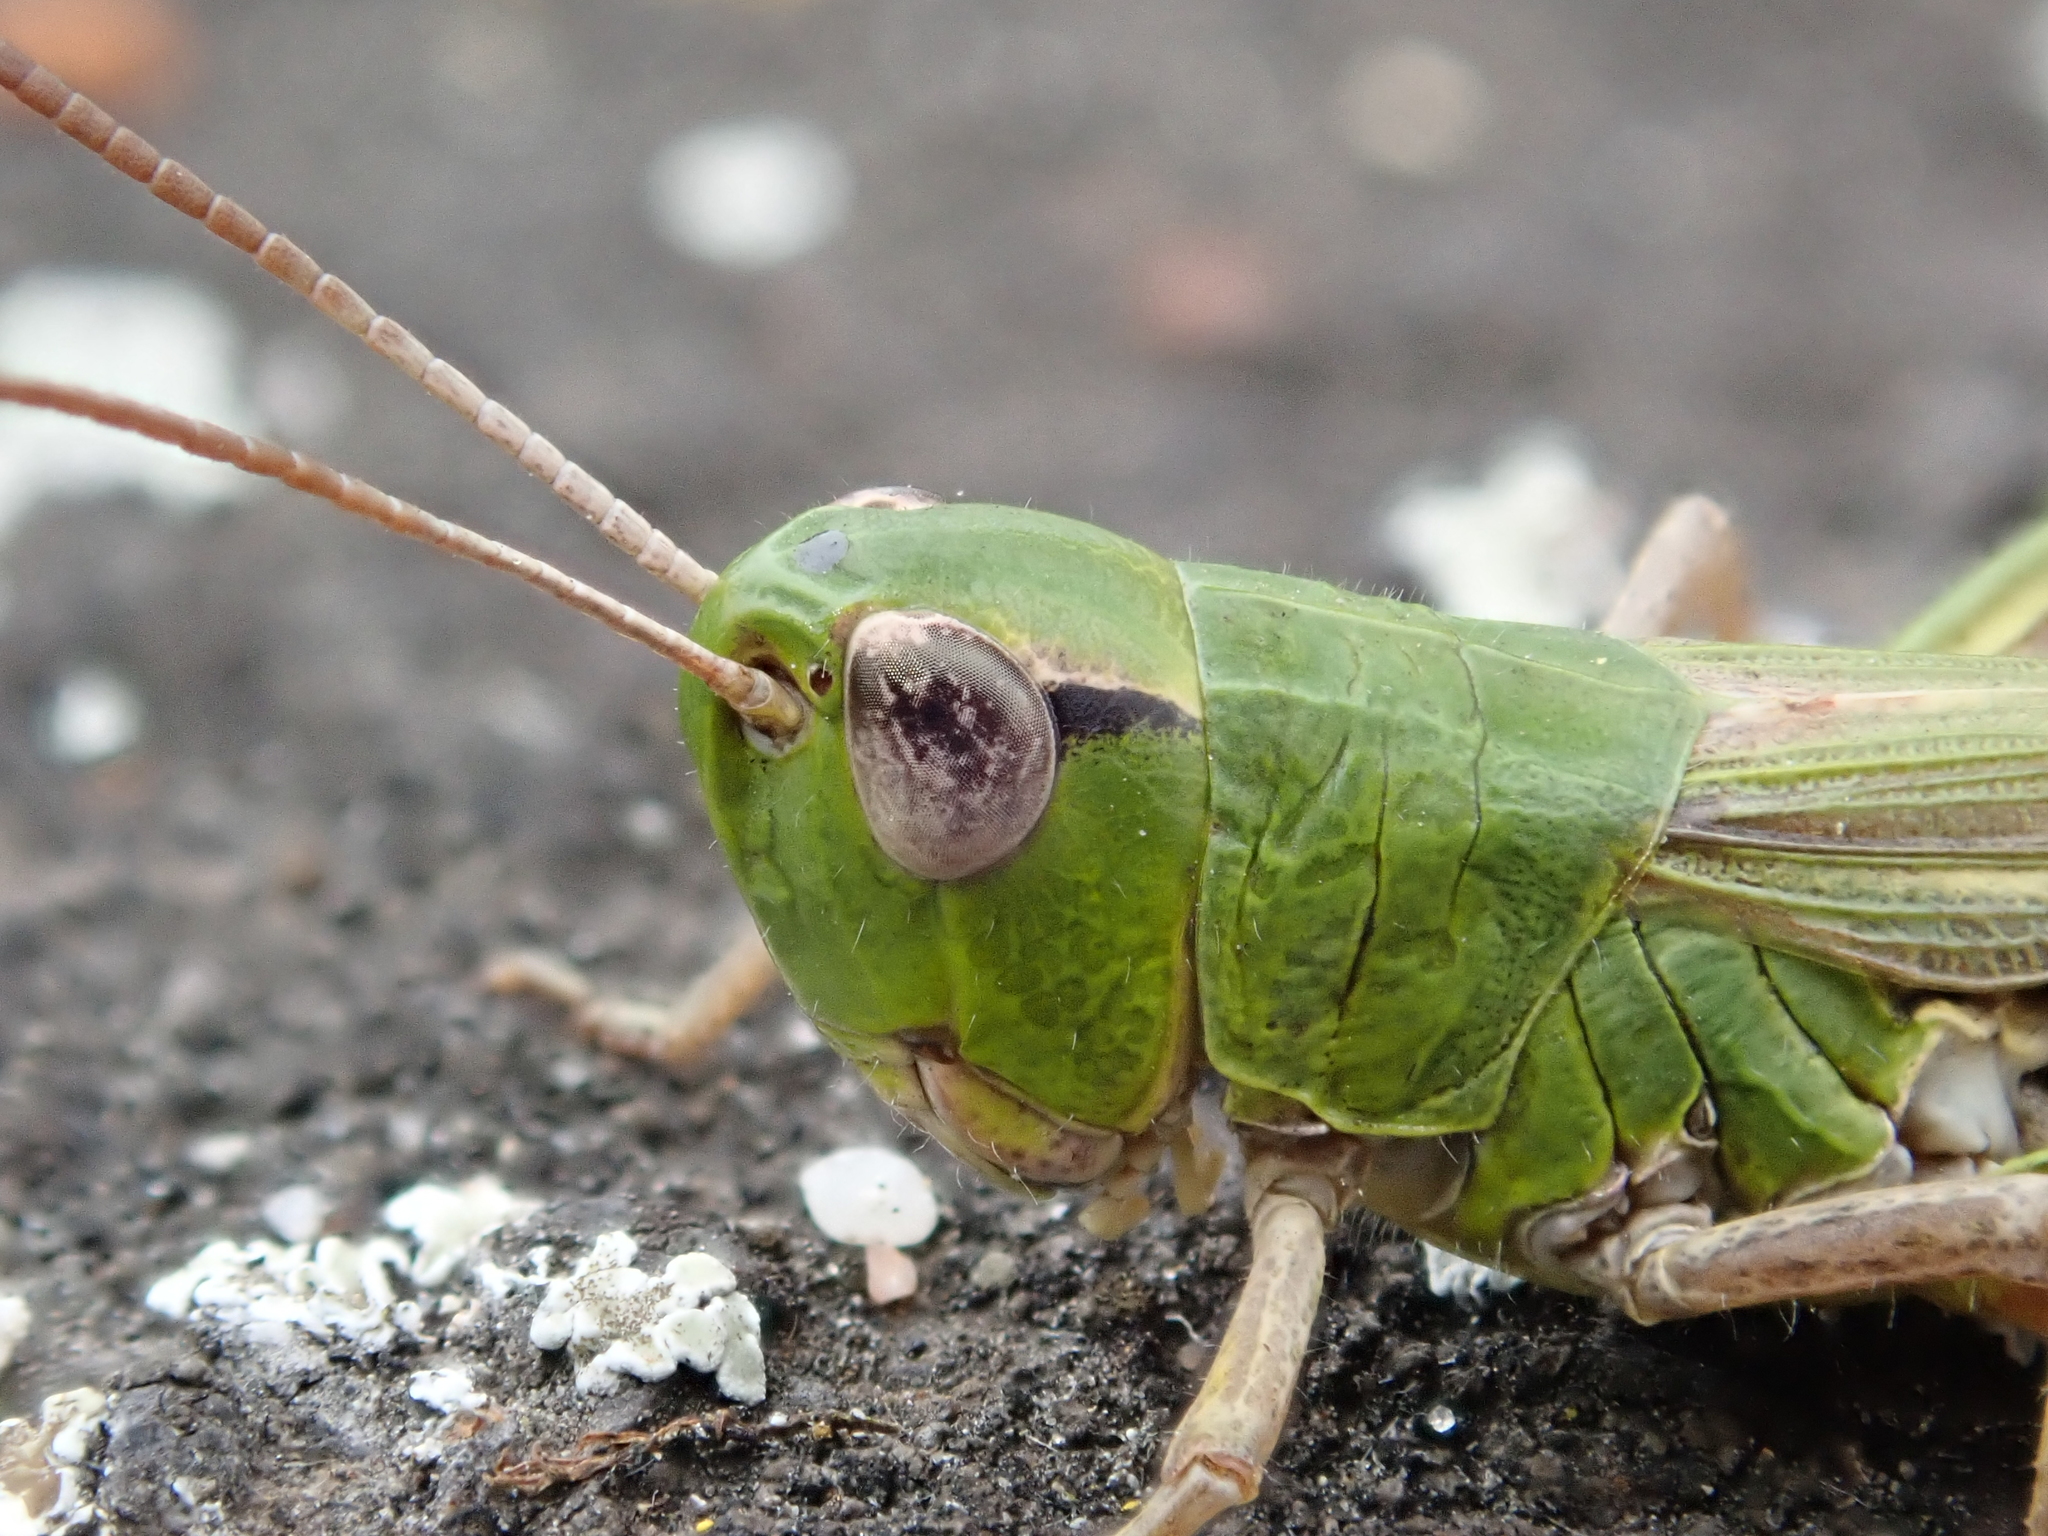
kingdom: Animalia
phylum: Arthropoda
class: Insecta
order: Orthoptera
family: Acrididae
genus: Pseudochorthippus
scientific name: Pseudochorthippus parallelus
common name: Meadow grasshopper
